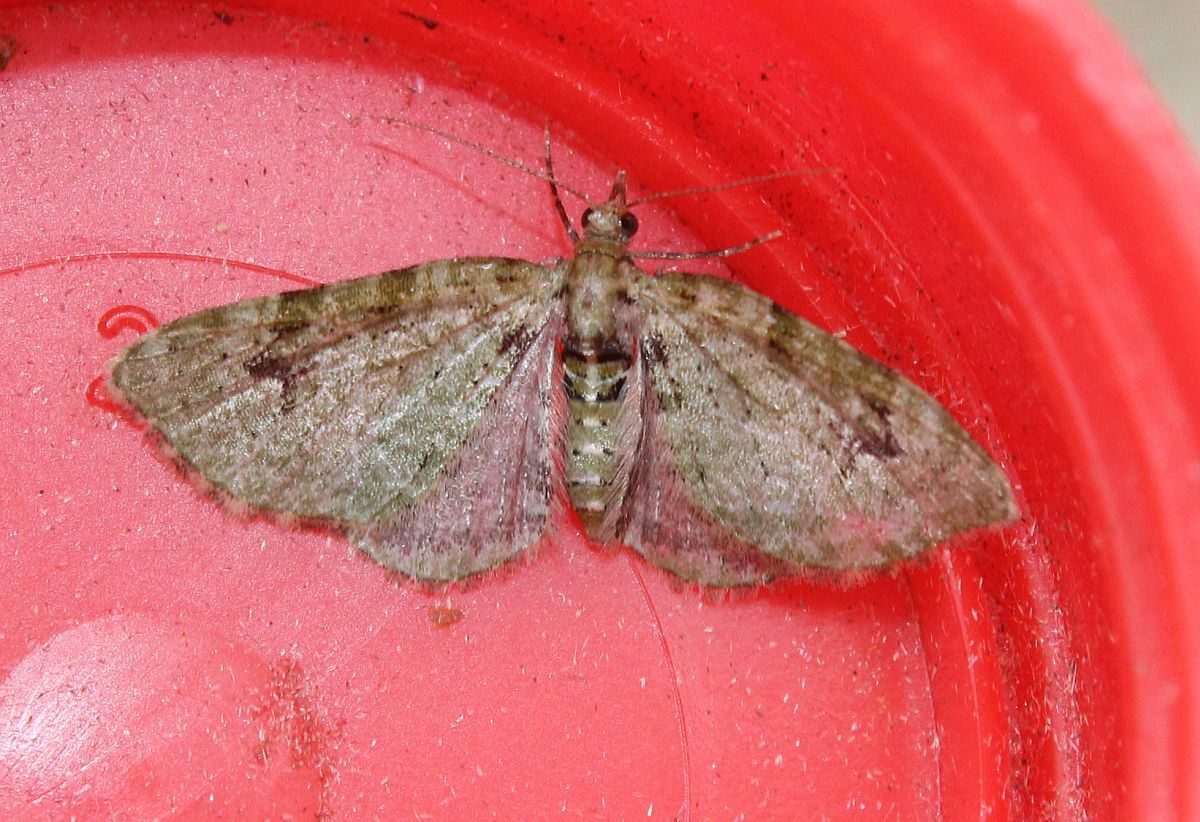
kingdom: Animalia
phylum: Arthropoda
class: Insecta
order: Lepidoptera
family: Geometridae
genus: Chloroclystis
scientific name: Chloroclystis v-ata
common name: V-pug
